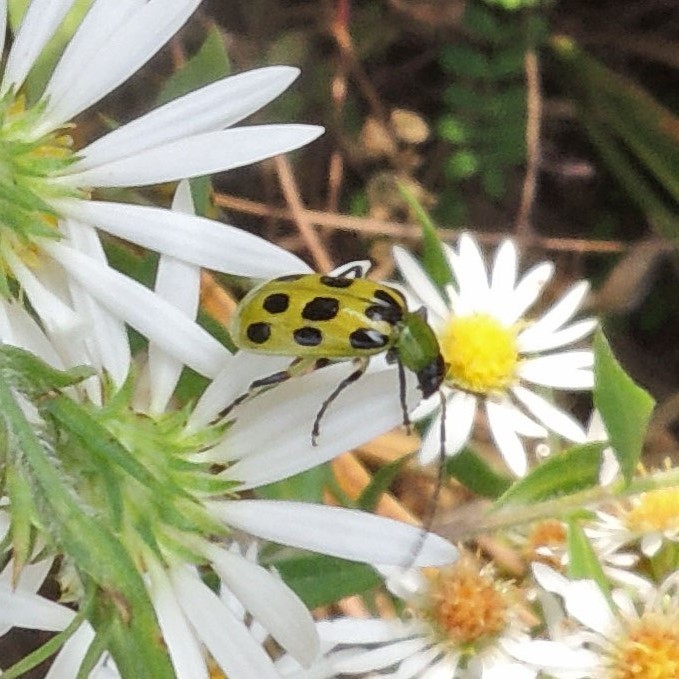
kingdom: Animalia
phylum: Arthropoda
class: Insecta
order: Coleoptera
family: Chrysomelidae
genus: Diabrotica
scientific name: Diabrotica undecimpunctata
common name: Spotted cucumber beetle
